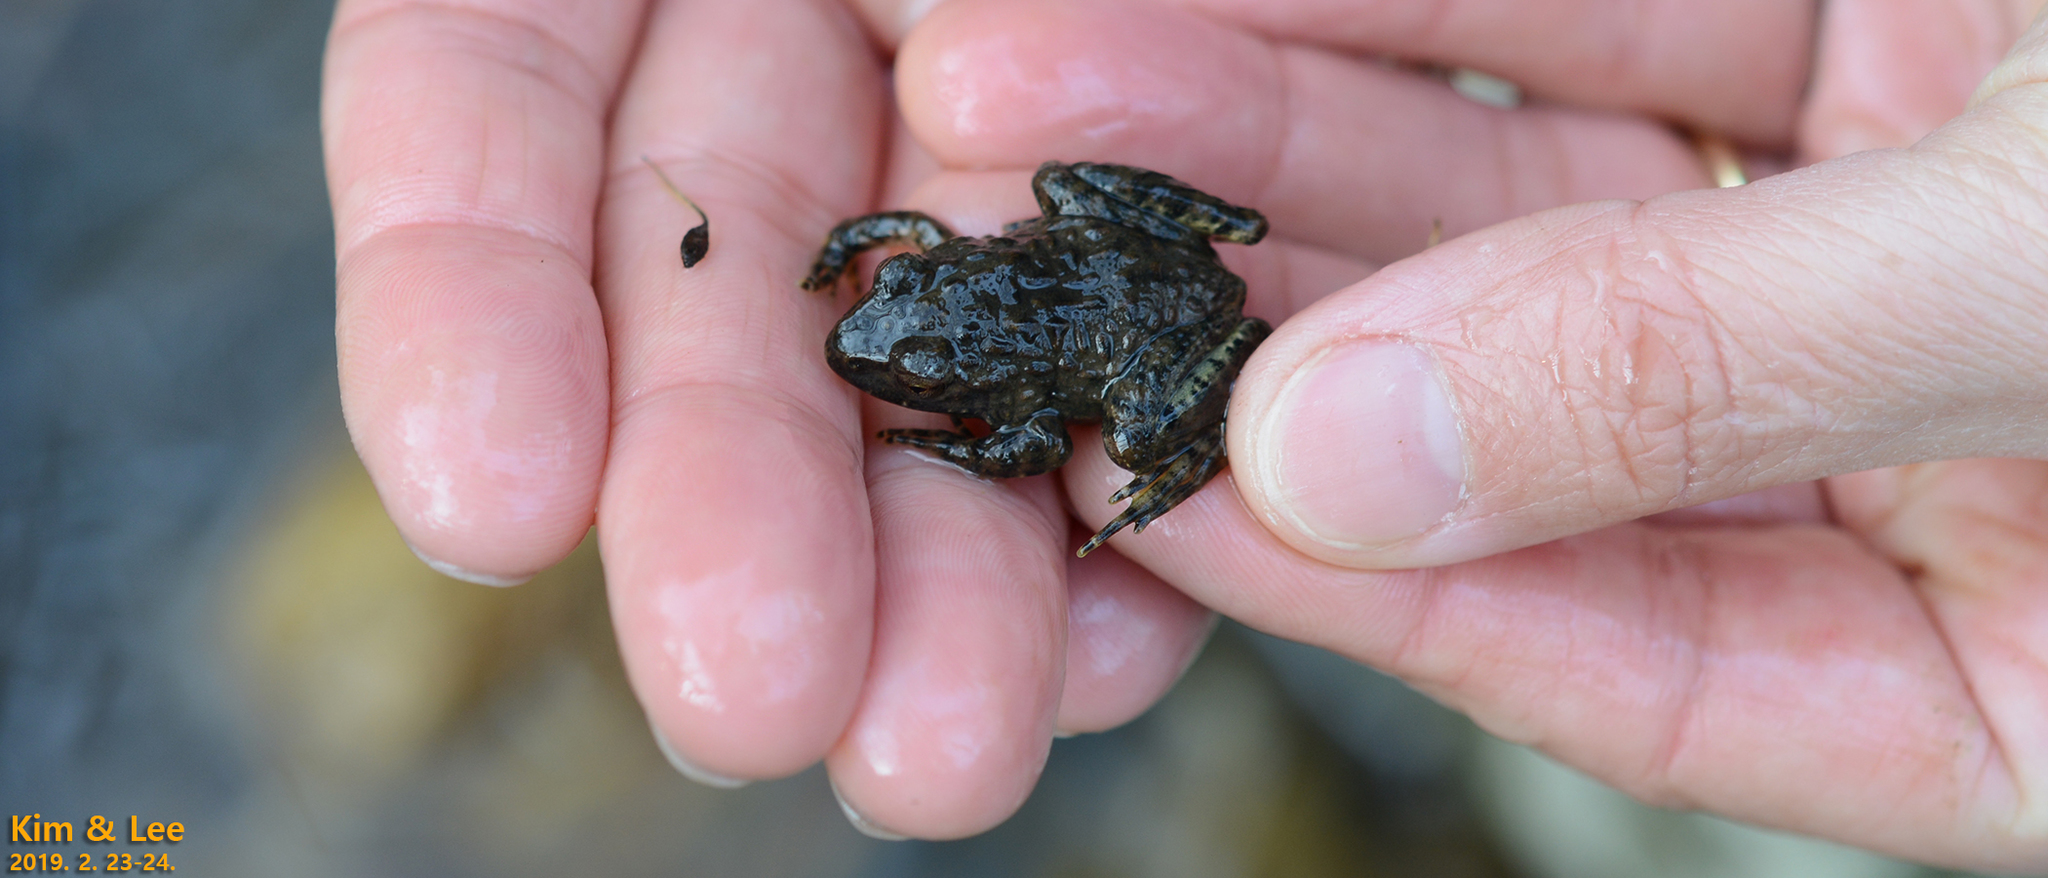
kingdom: Animalia
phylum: Chordata
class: Amphibia
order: Anura
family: Ranidae
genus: Glandirana
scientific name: Glandirana emeljanovi
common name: Northeast china rough-skinned frog
